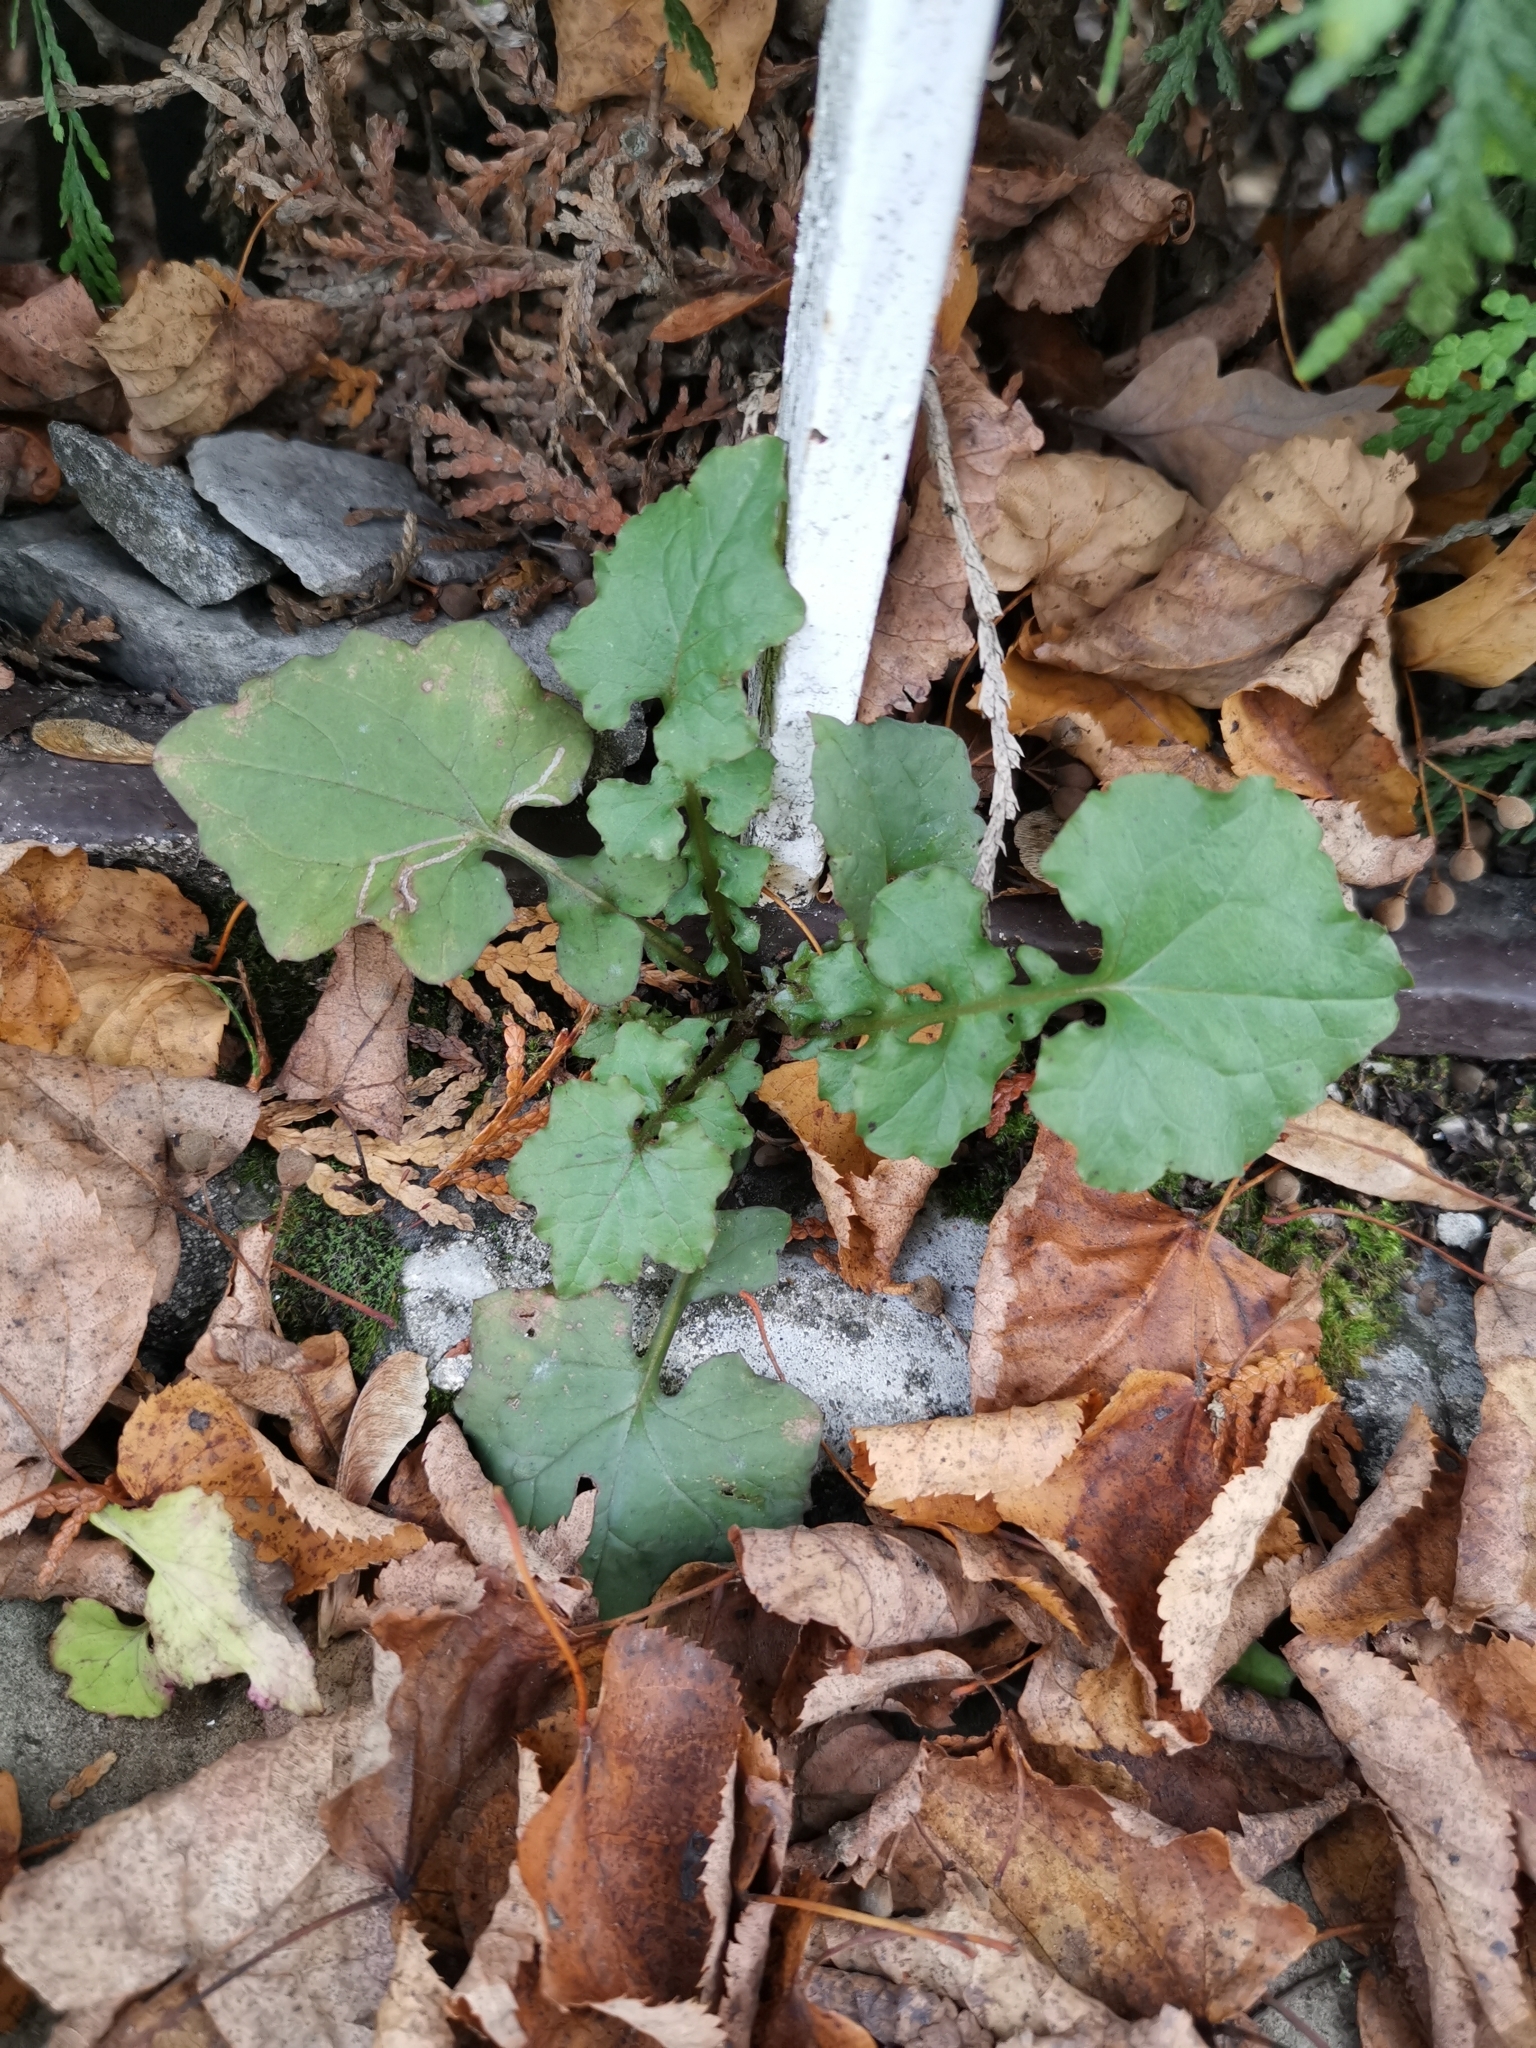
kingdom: Plantae
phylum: Tracheophyta
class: Magnoliopsida
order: Asterales
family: Asteraceae
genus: Mycelis
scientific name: Mycelis muralis
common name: Wall lettuce
